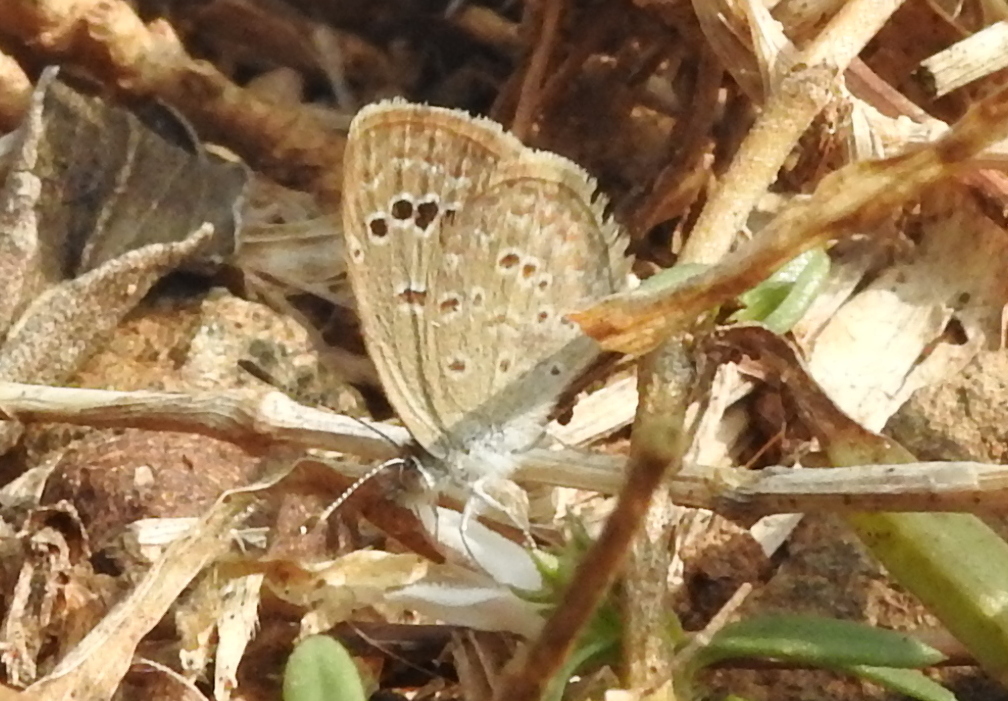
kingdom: Animalia
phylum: Arthropoda
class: Insecta
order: Lepidoptera
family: Lycaenidae
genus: Zizina
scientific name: Zizina otis
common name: Lesser grass blue
